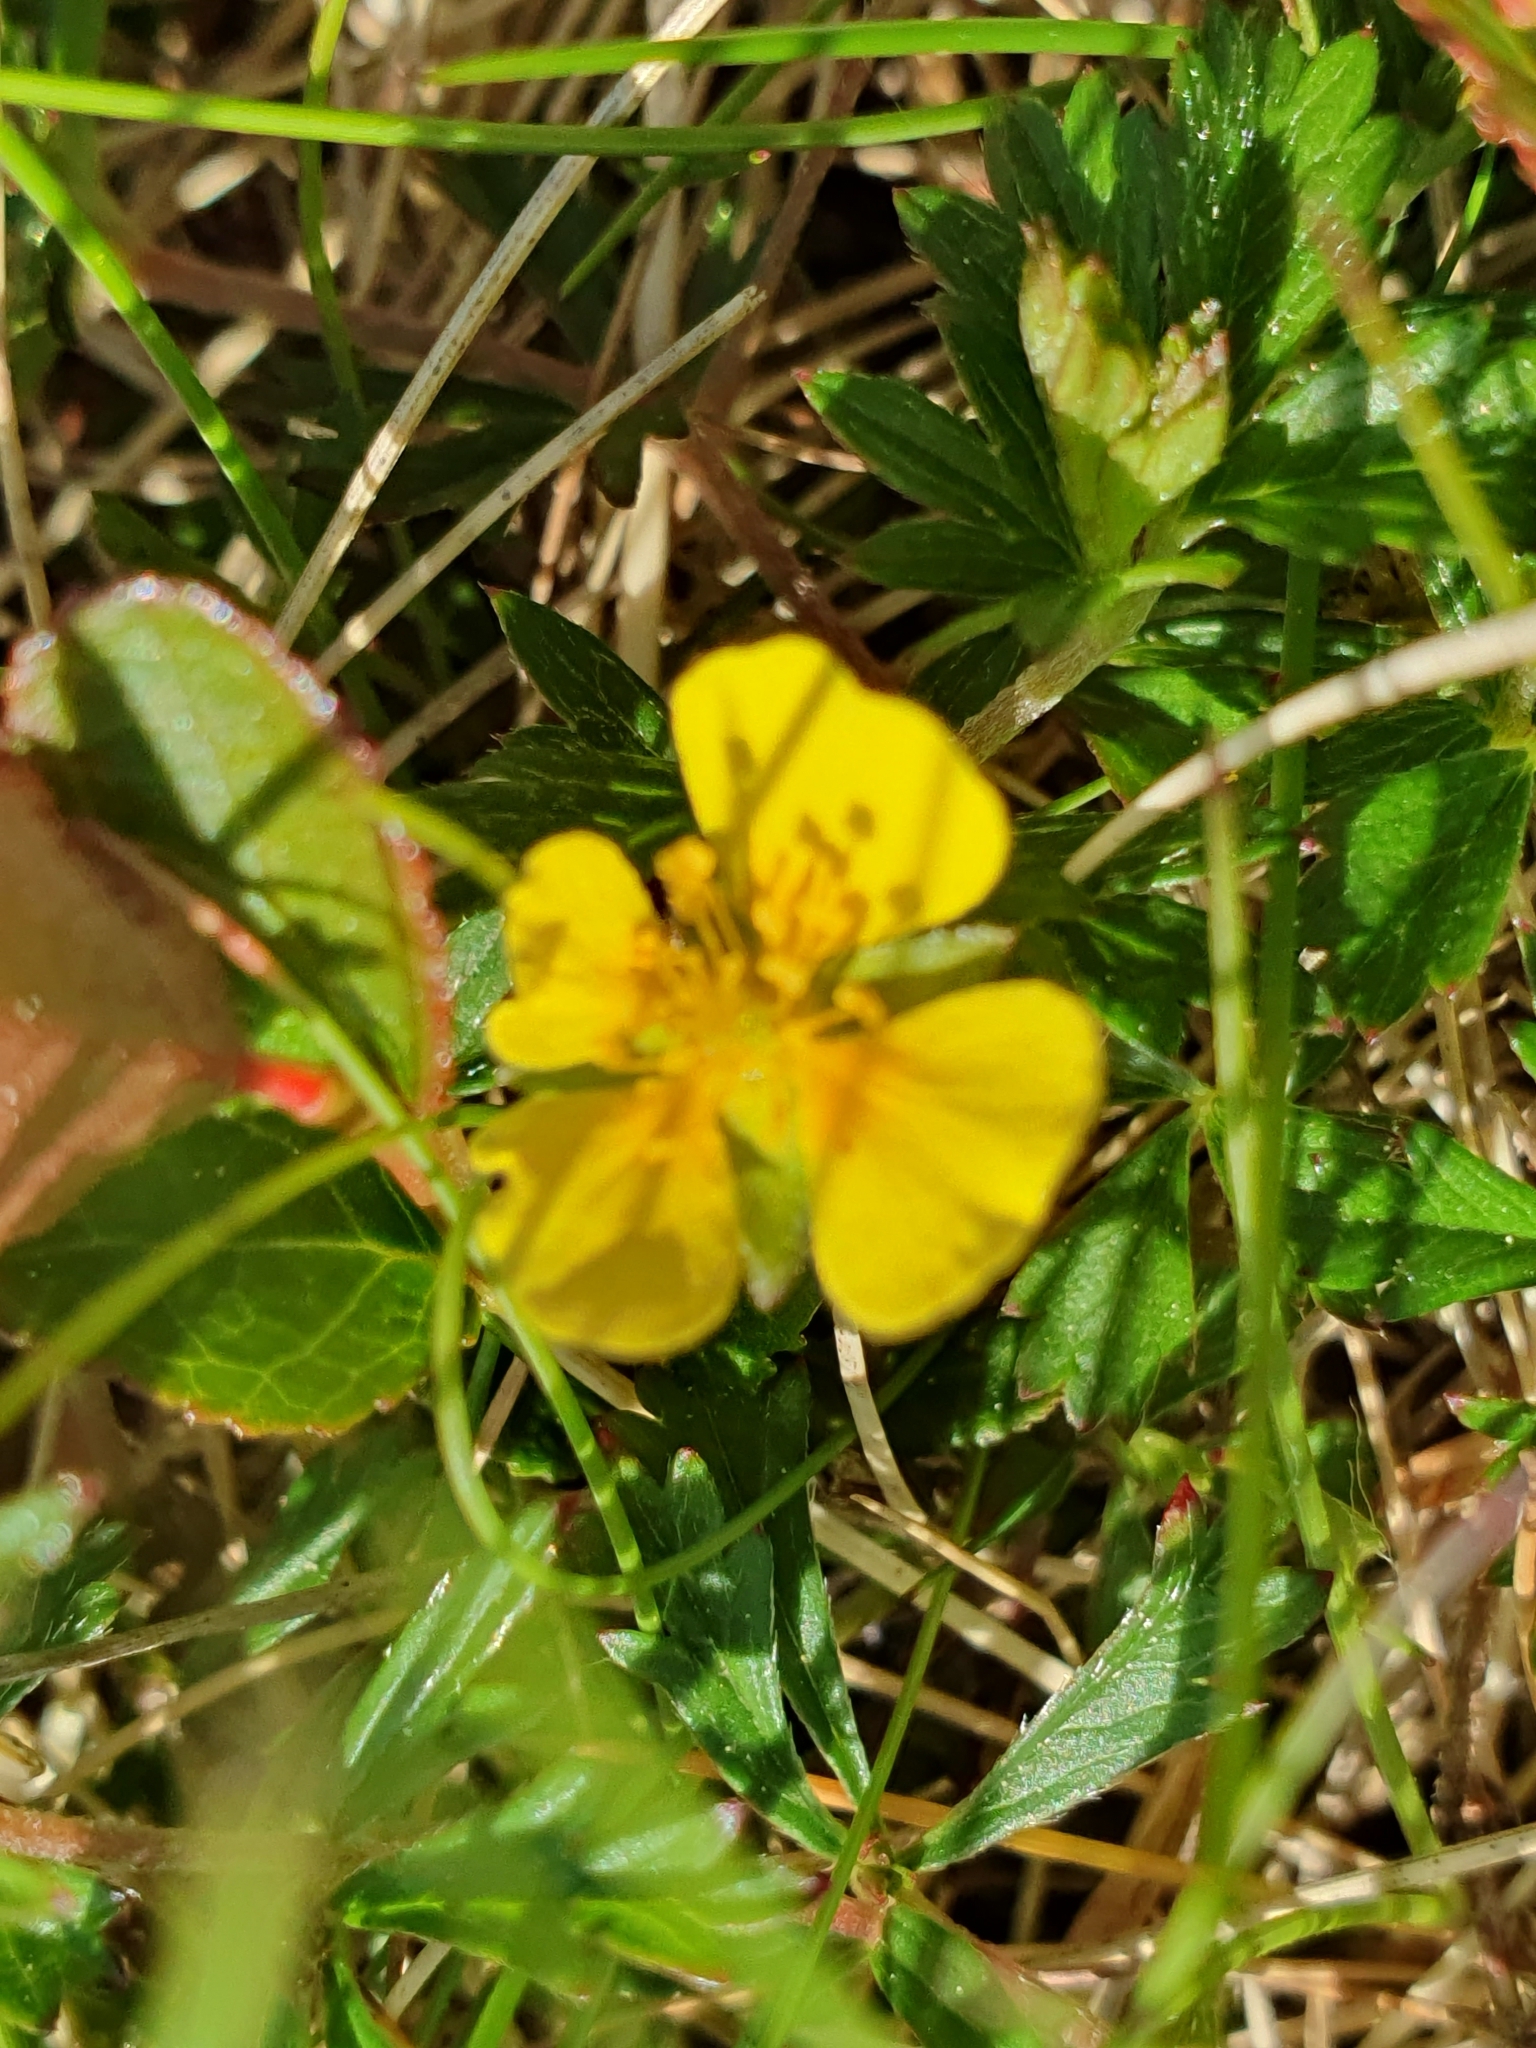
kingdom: Plantae
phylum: Tracheophyta
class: Magnoliopsida
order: Rosales
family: Rosaceae
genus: Potentilla
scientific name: Potentilla erecta
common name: Tormentil
